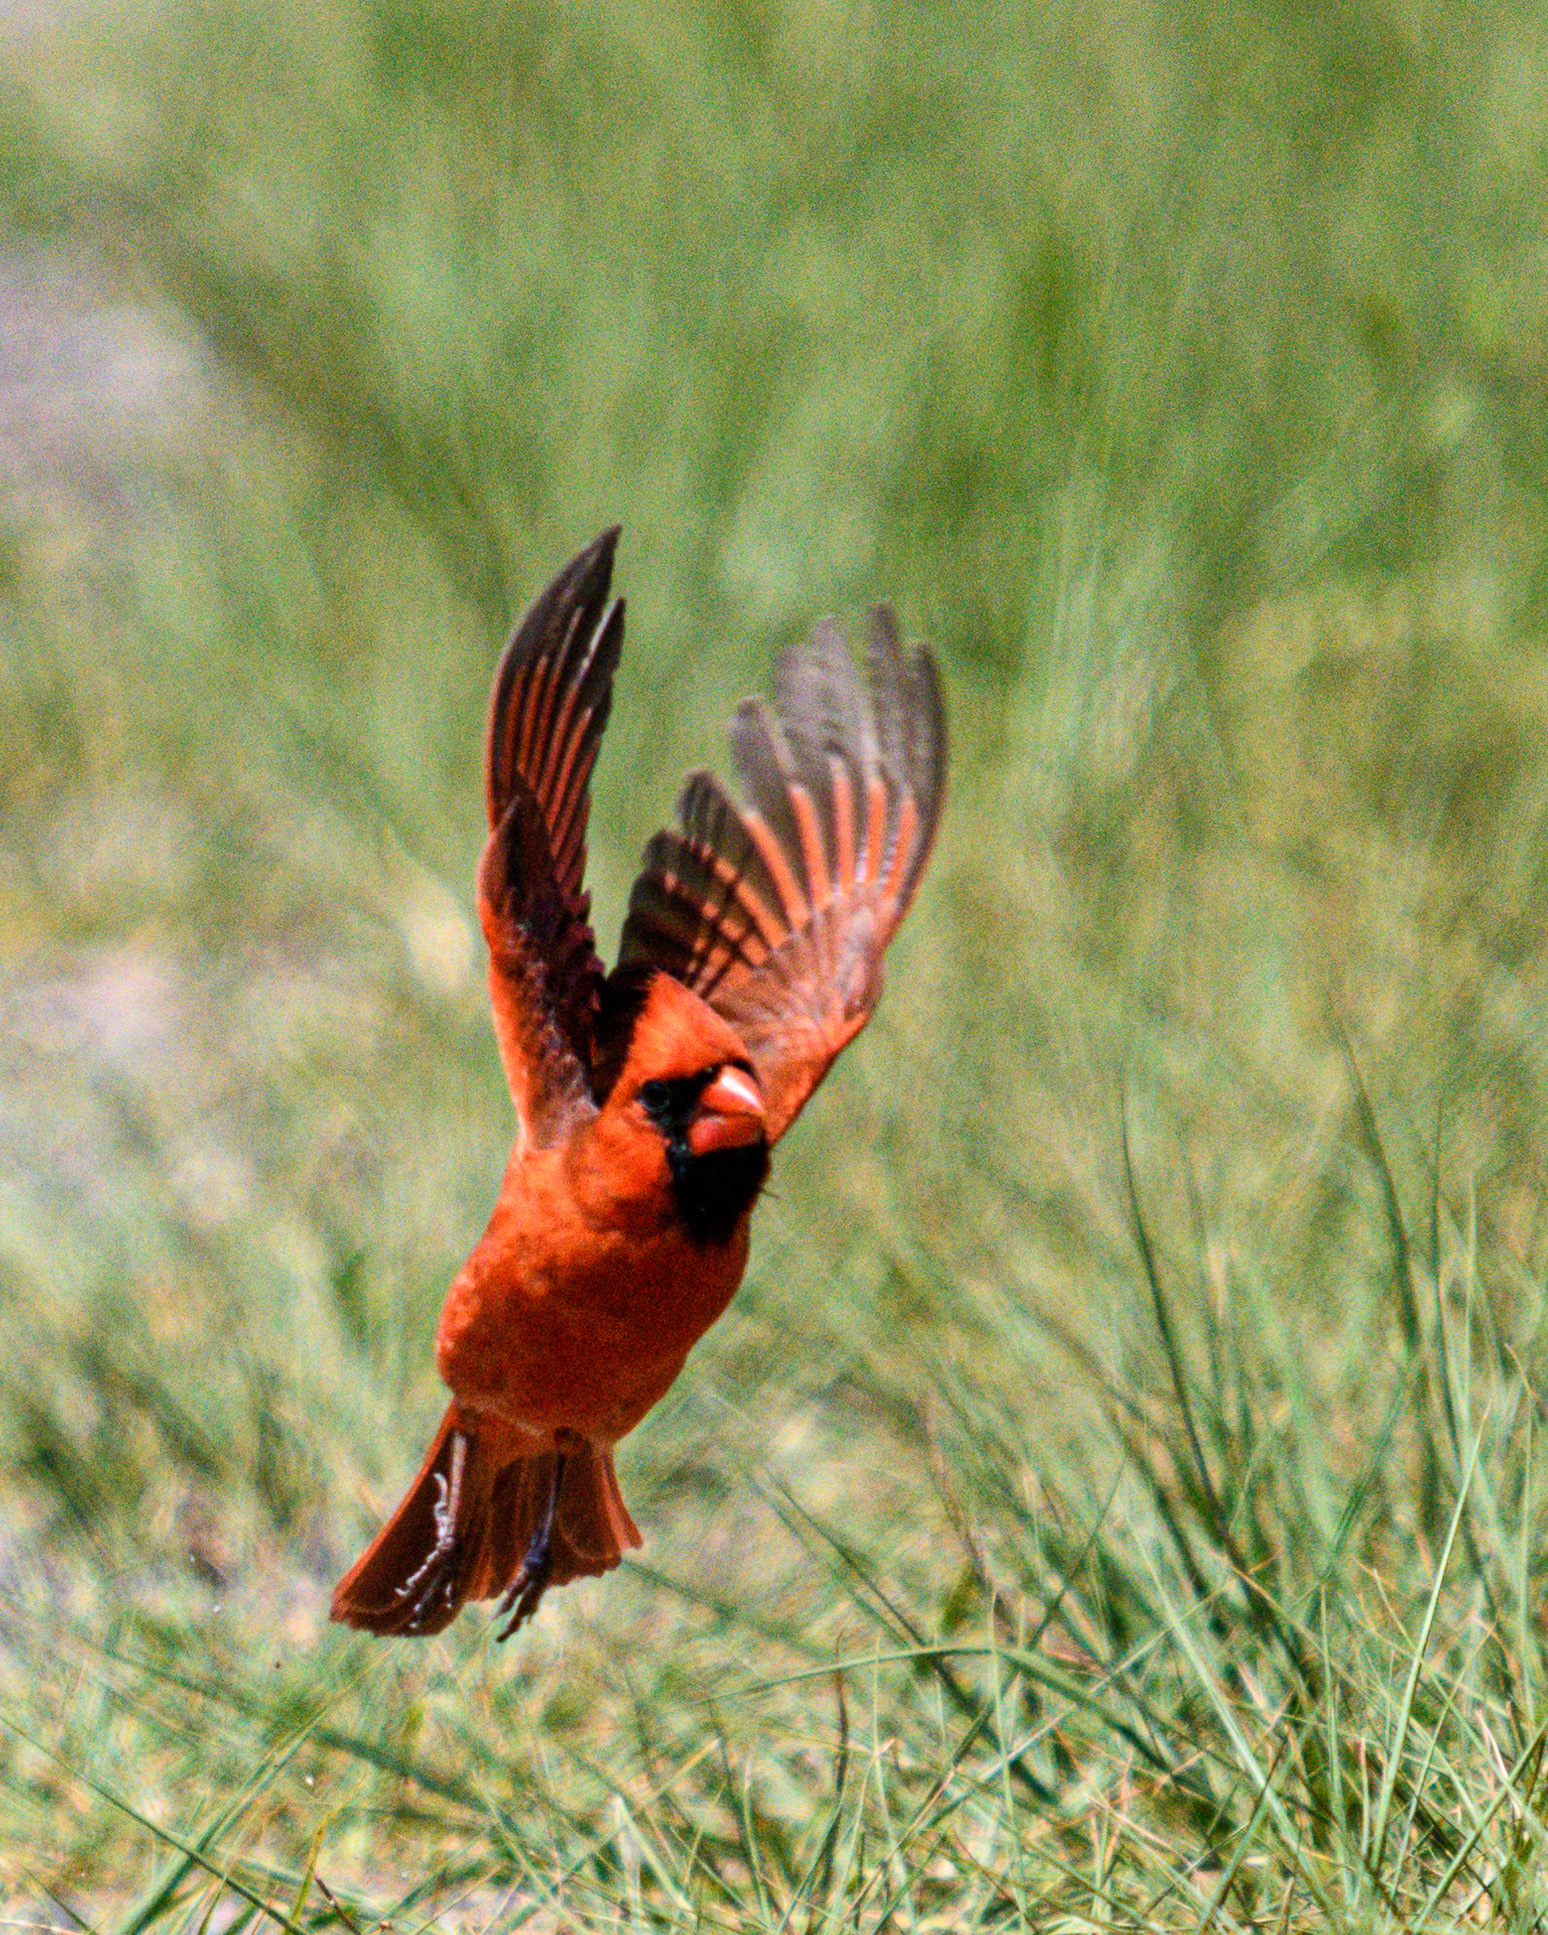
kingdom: Animalia
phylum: Chordata
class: Aves
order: Passeriformes
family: Cardinalidae
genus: Cardinalis
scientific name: Cardinalis cardinalis
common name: Northern cardinal
